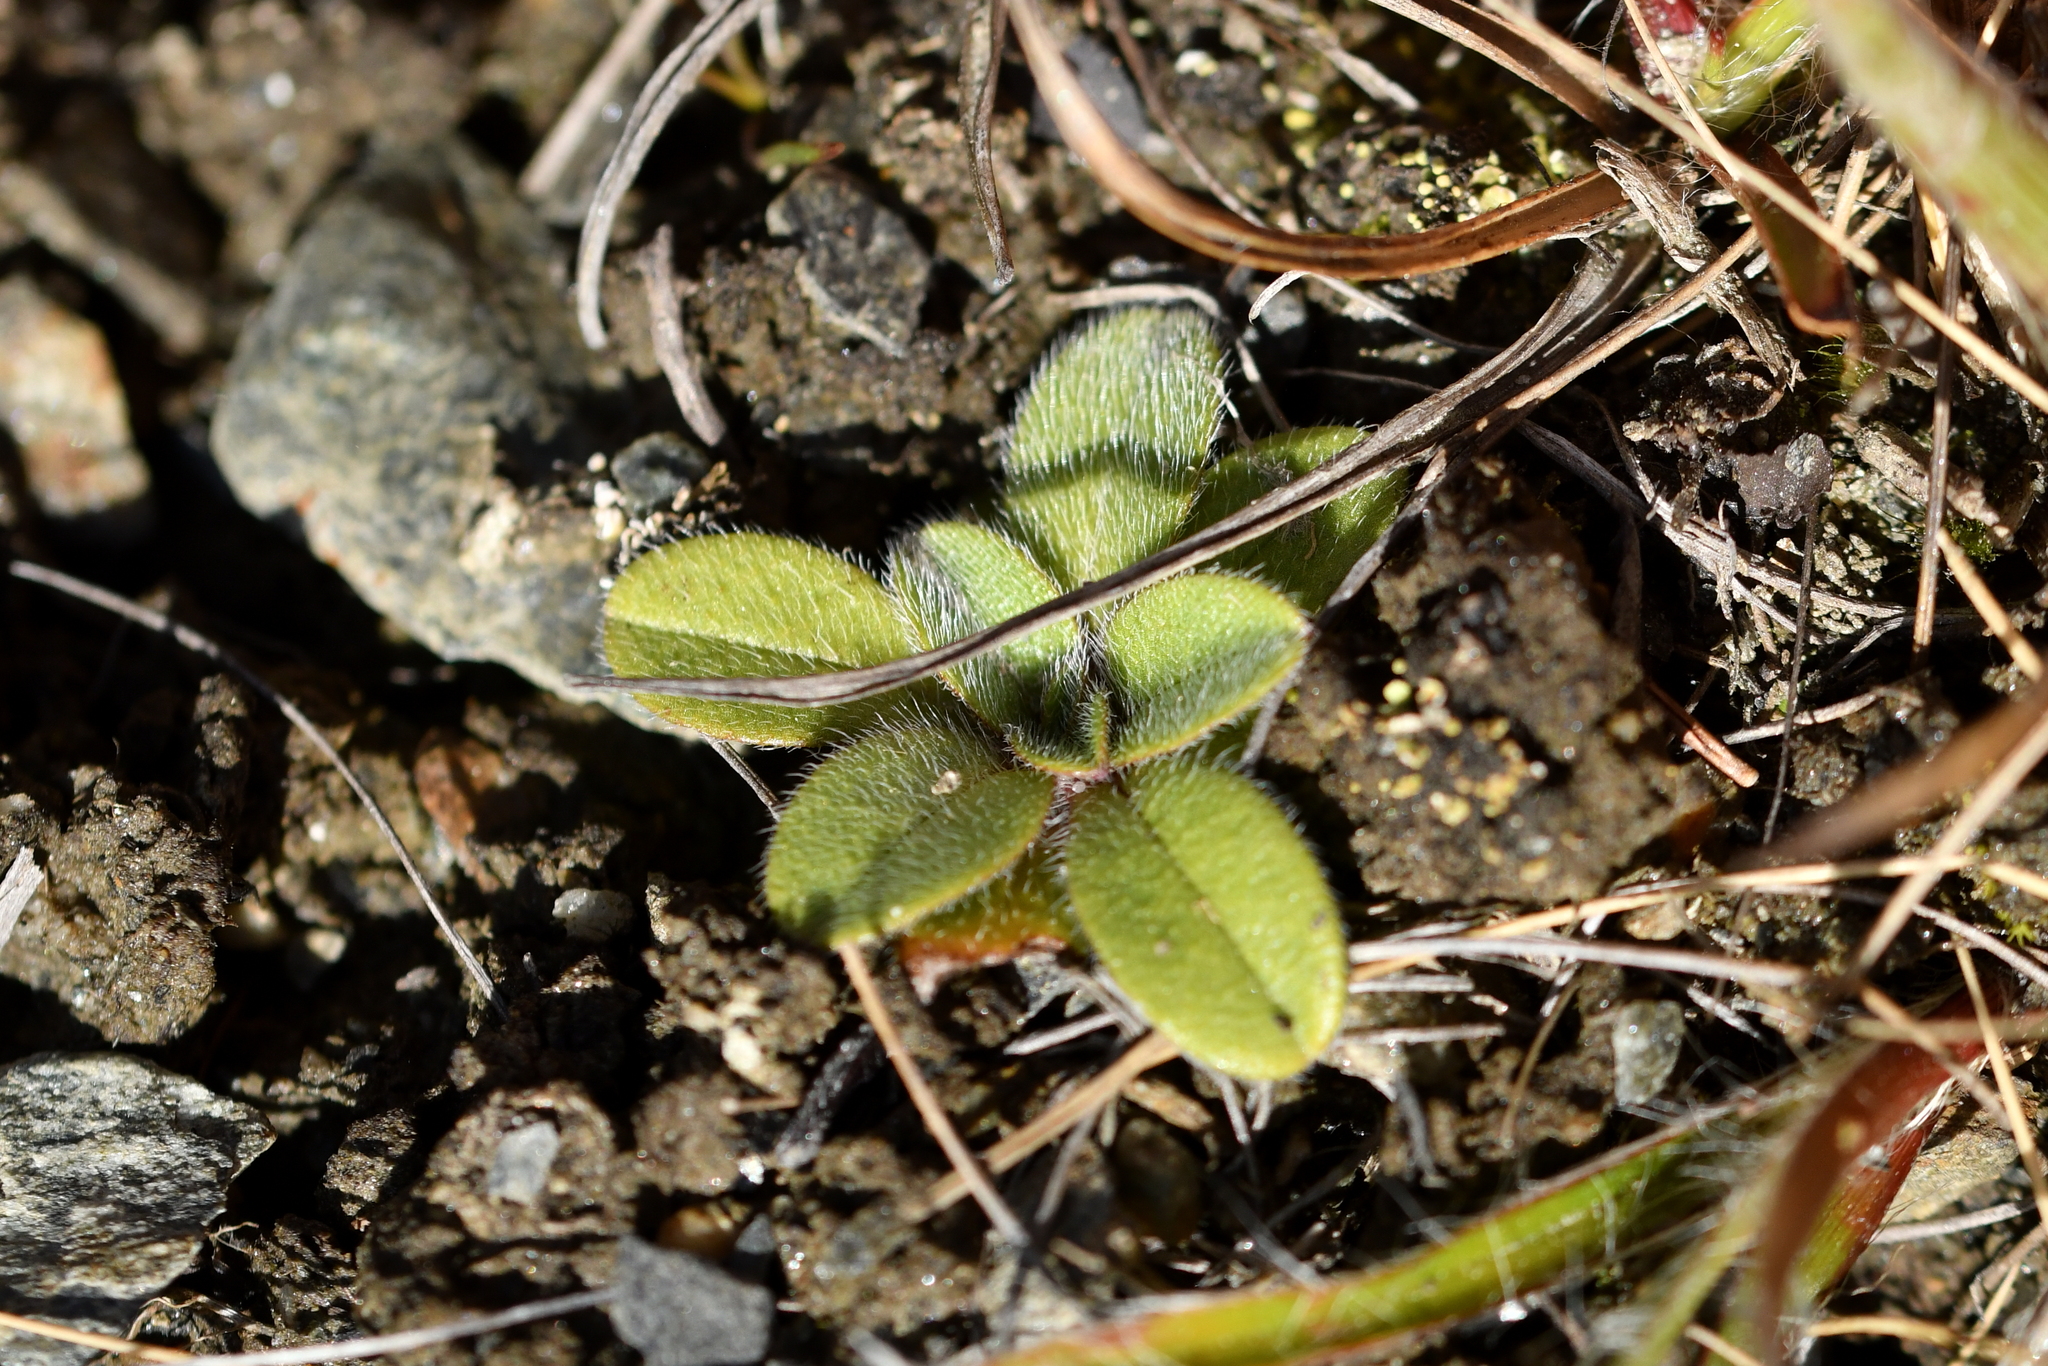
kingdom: Plantae
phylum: Tracheophyta
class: Magnoliopsida
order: Boraginales
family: Boraginaceae
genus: Myosotis
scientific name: Myosotis lyallii
